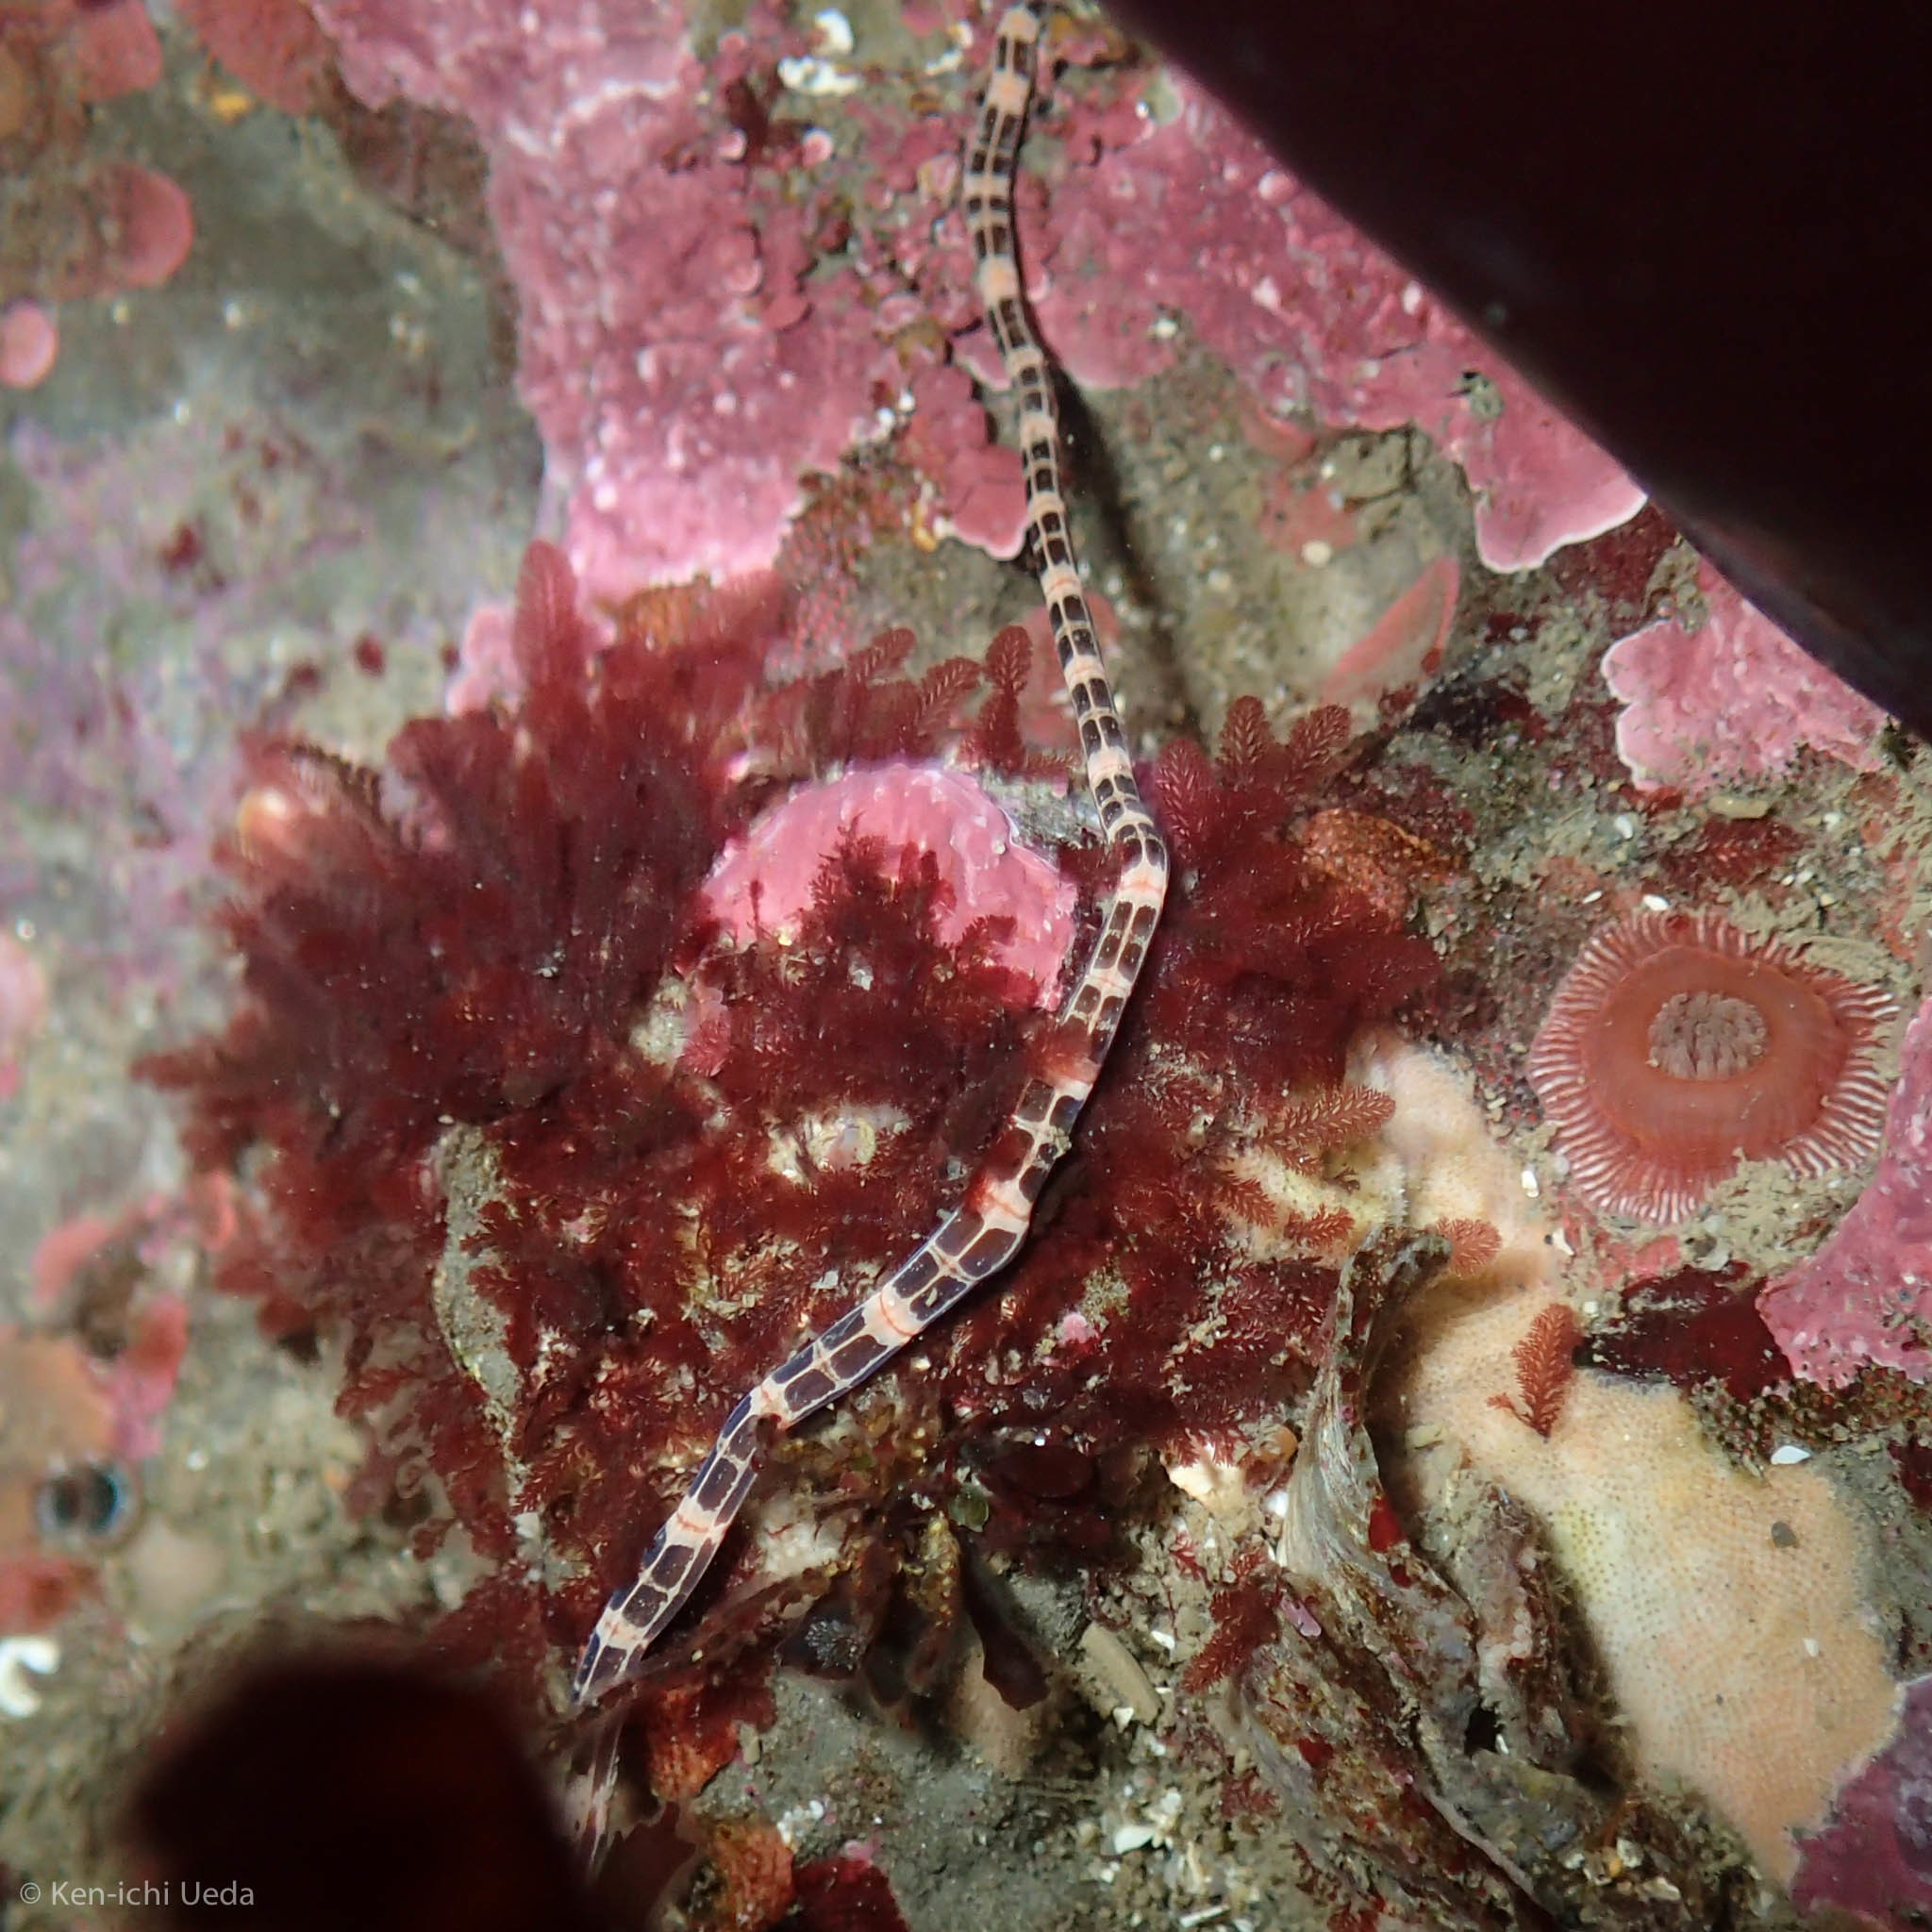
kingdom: Animalia
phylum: Nemertea
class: Palaeonemertea
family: Tubulanidae
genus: Tubulanus
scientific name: Tubulanus sexlineatus
